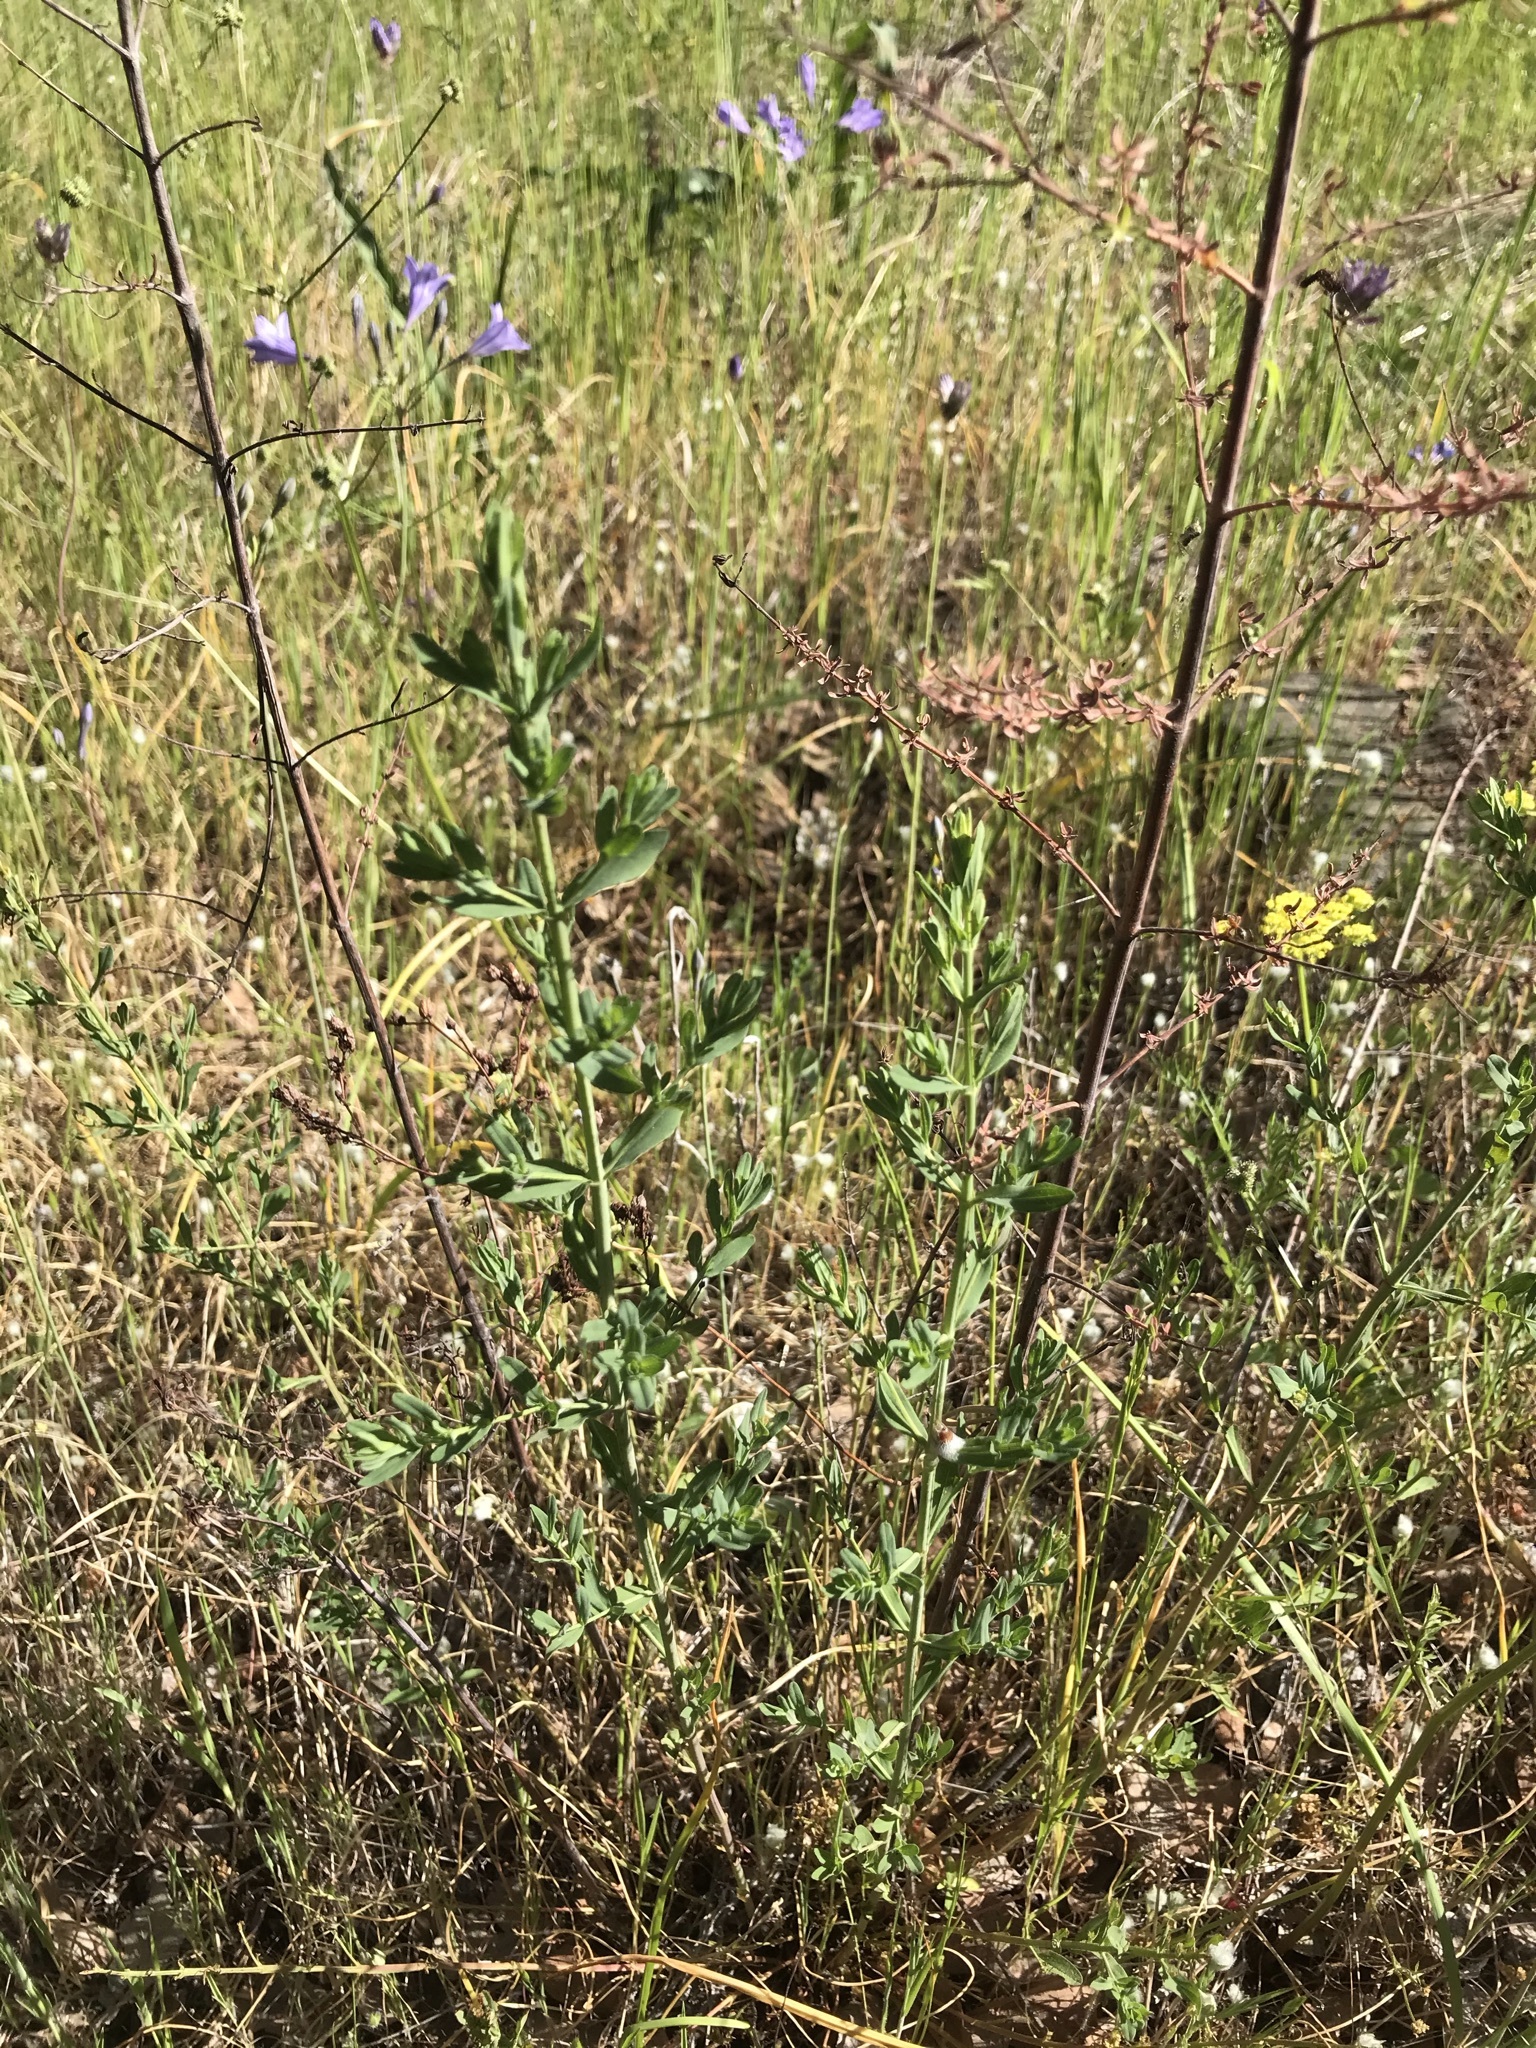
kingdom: Plantae
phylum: Tracheophyta
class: Magnoliopsida
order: Malpighiales
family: Hypericaceae
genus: Hypericum
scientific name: Hypericum perforatum
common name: Common st. johnswort
